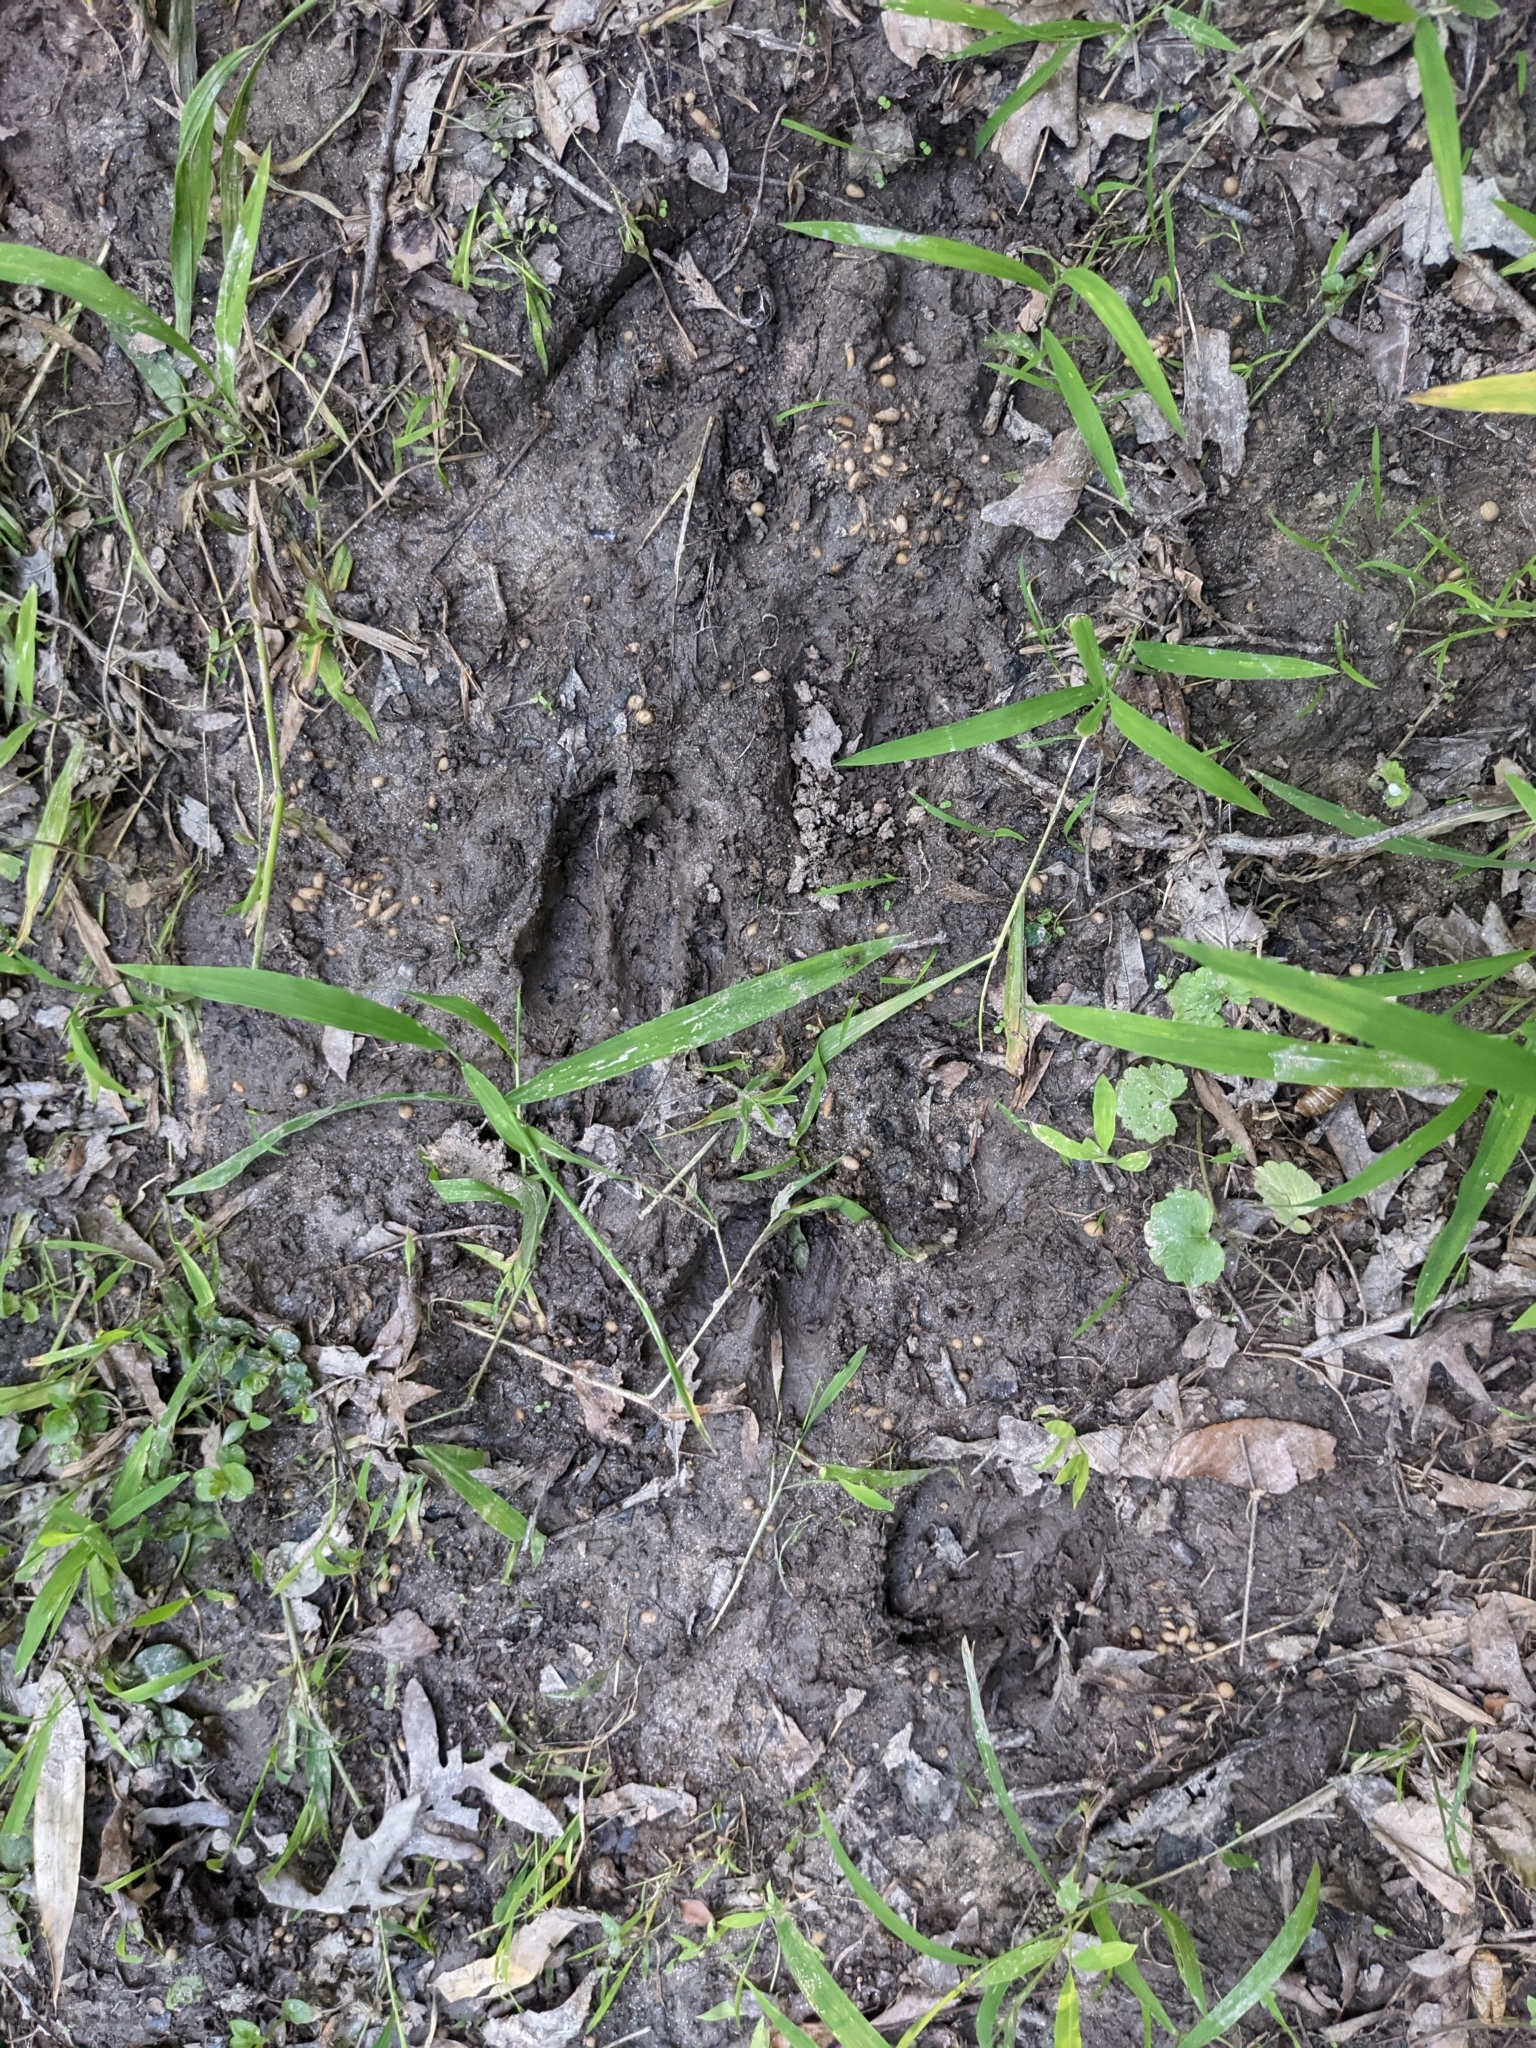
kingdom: Animalia
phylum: Chordata
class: Mammalia
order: Artiodactyla
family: Cervidae
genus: Odocoileus
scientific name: Odocoileus virginianus
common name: White-tailed deer
